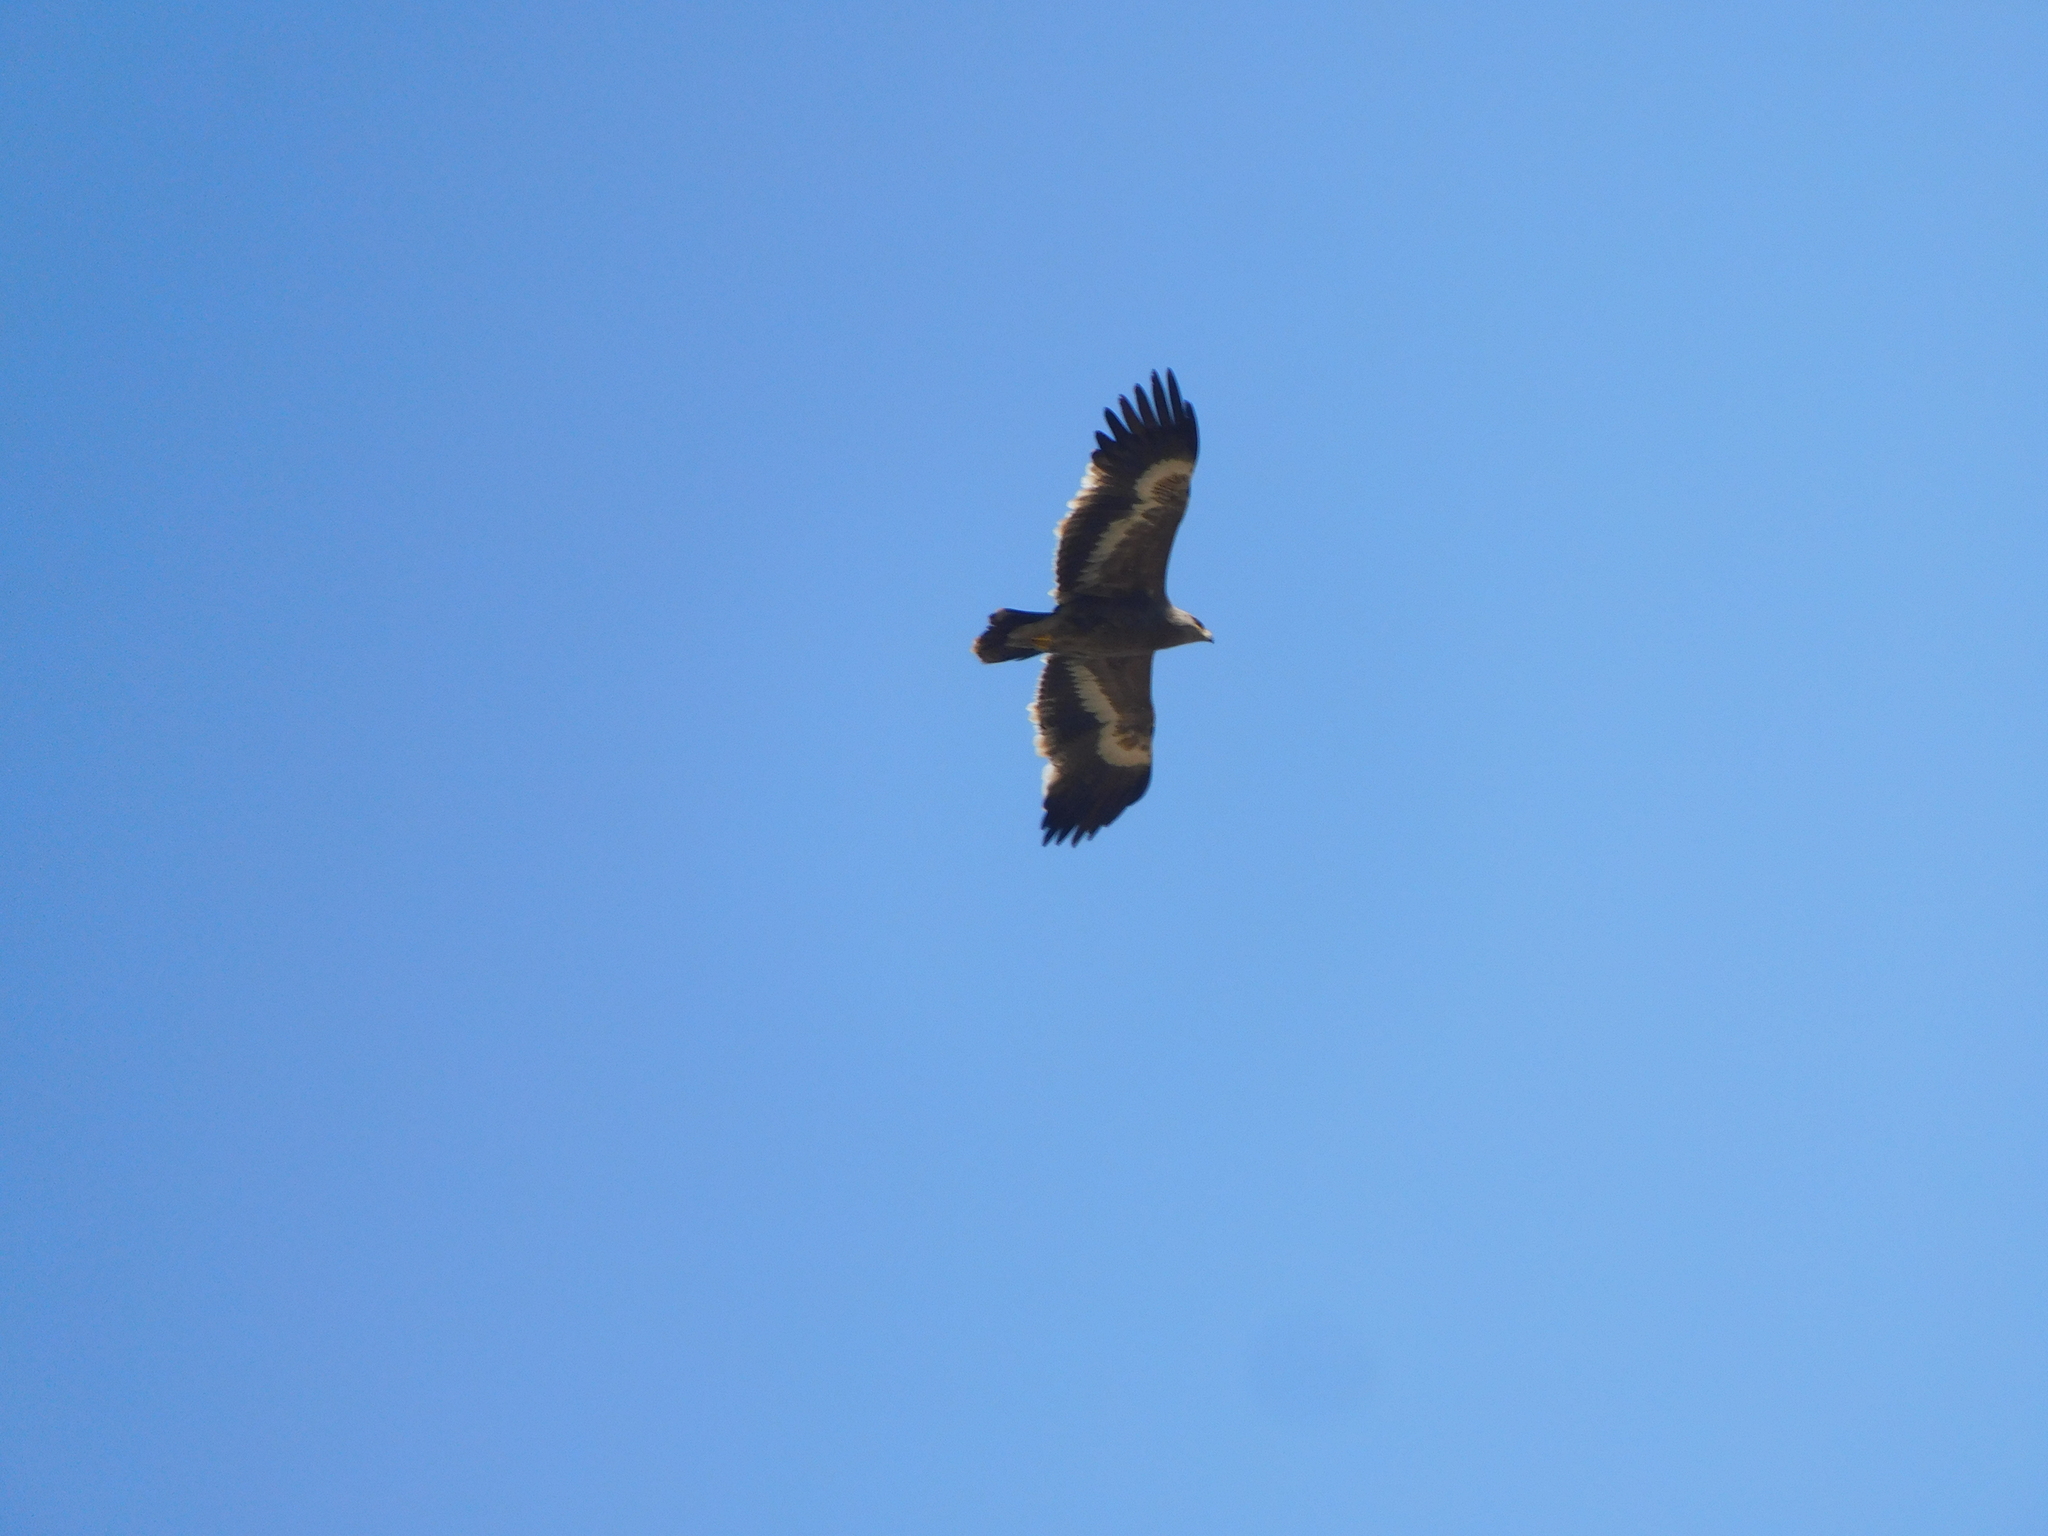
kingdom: Animalia
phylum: Chordata
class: Aves
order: Accipitriformes
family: Accipitridae
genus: Aquila
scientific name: Aquila nipalensis
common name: Steppe eagle
